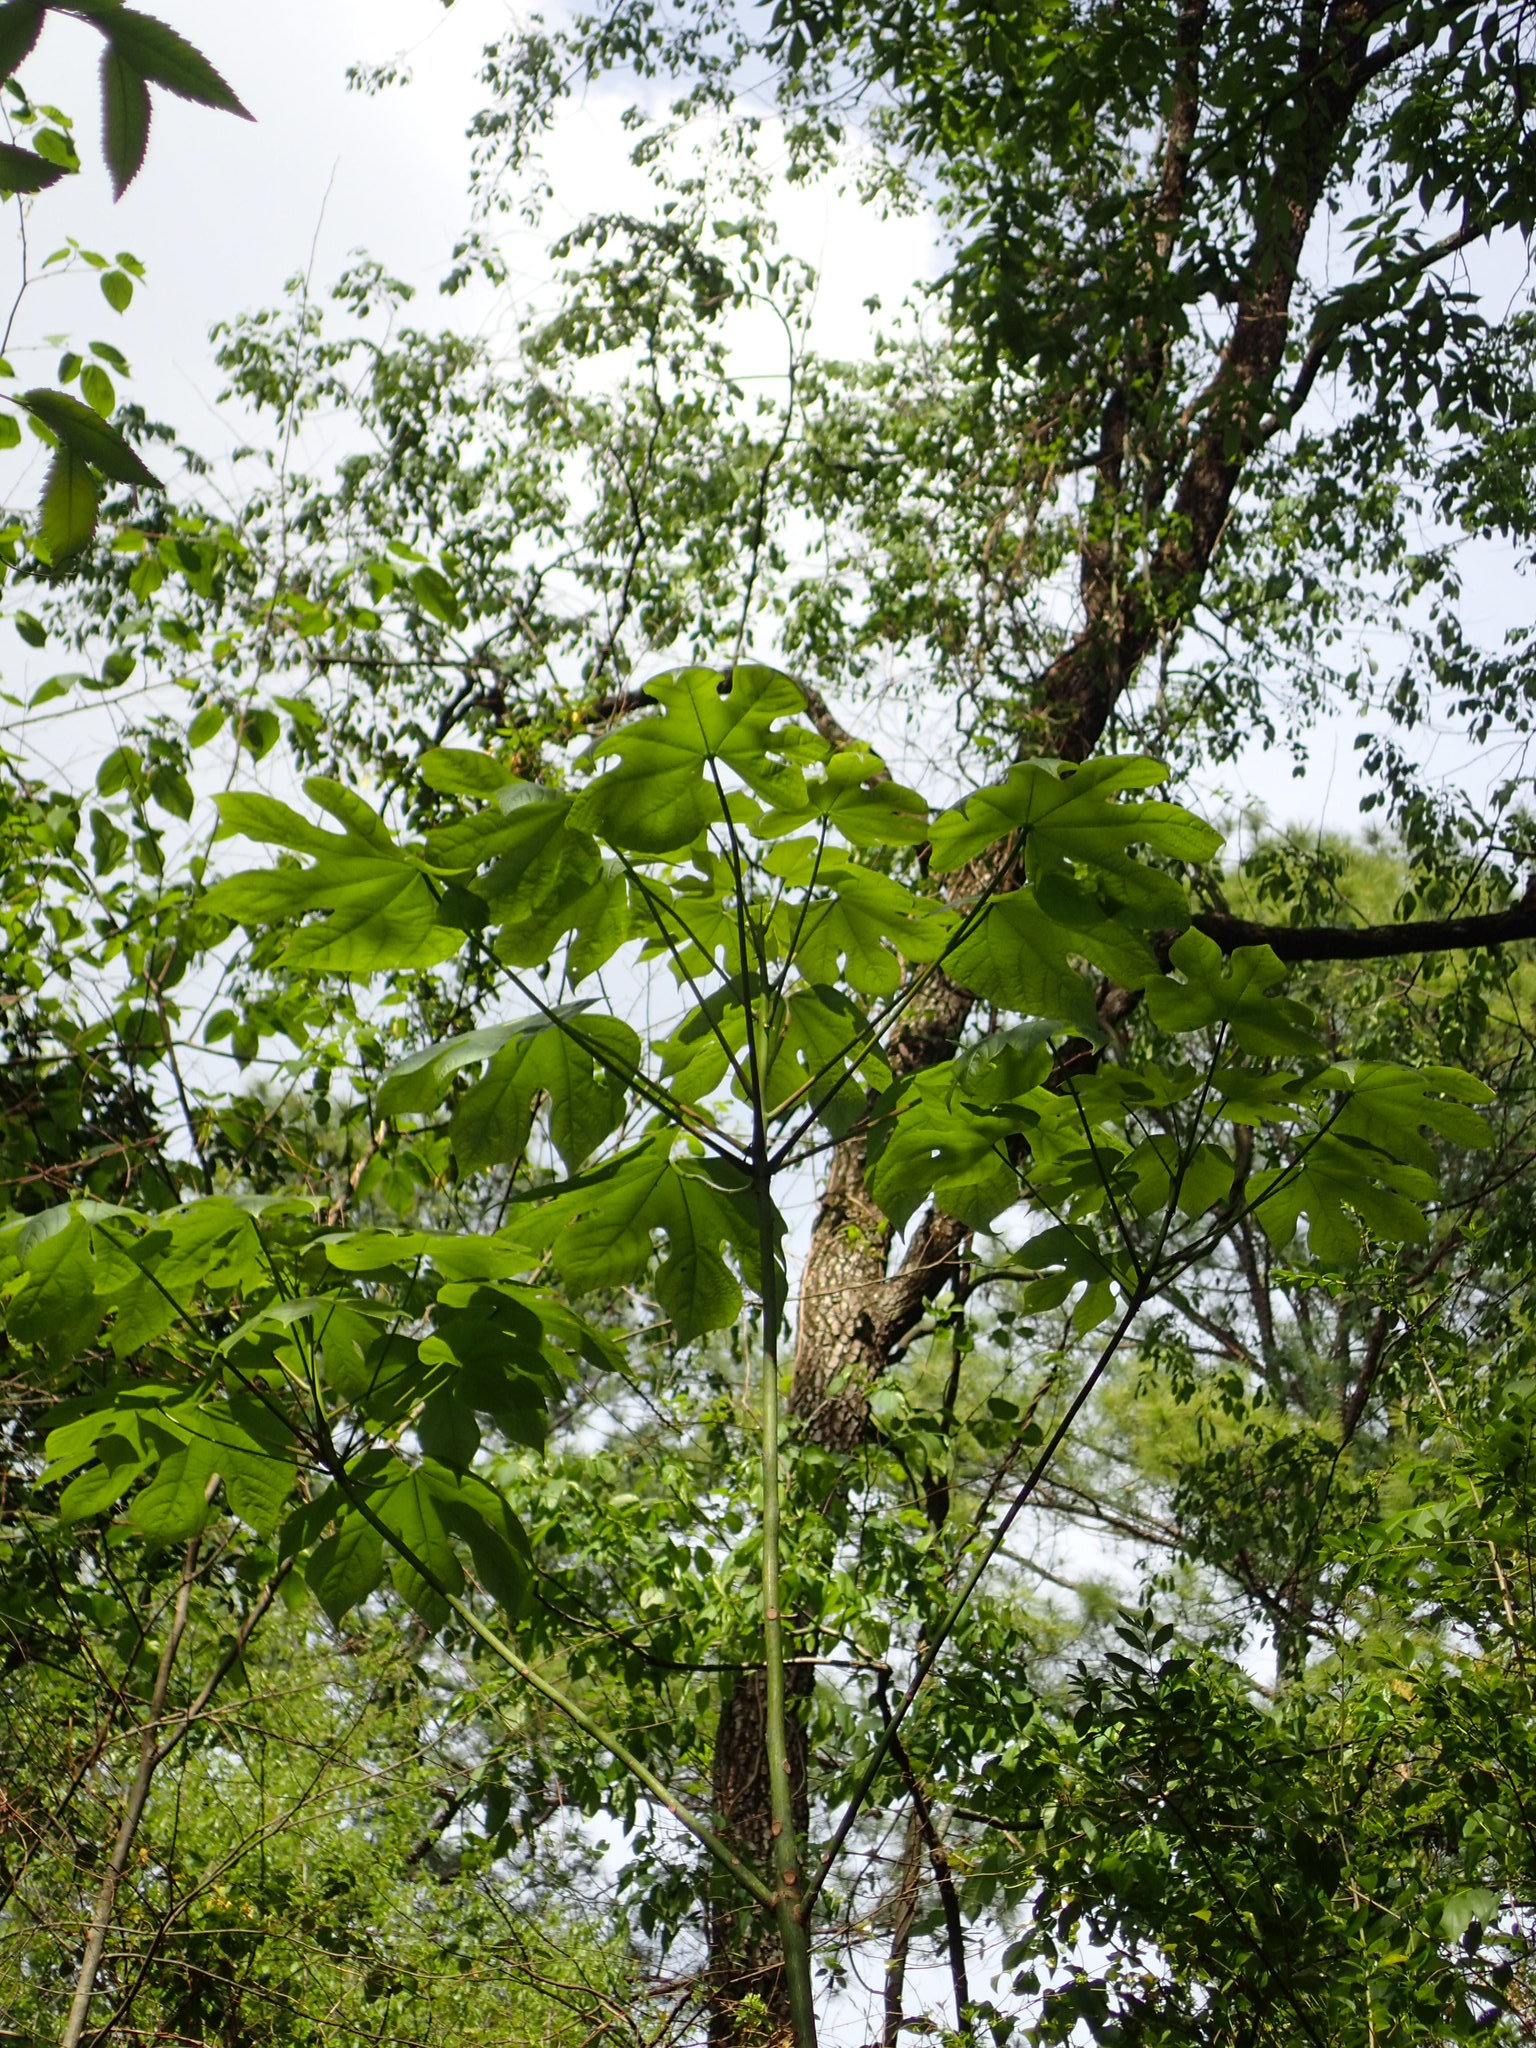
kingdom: Plantae
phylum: Tracheophyta
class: Magnoliopsida
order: Malvales
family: Malvaceae
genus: Firmiana
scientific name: Firmiana simplex
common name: Chinese parasoltree
